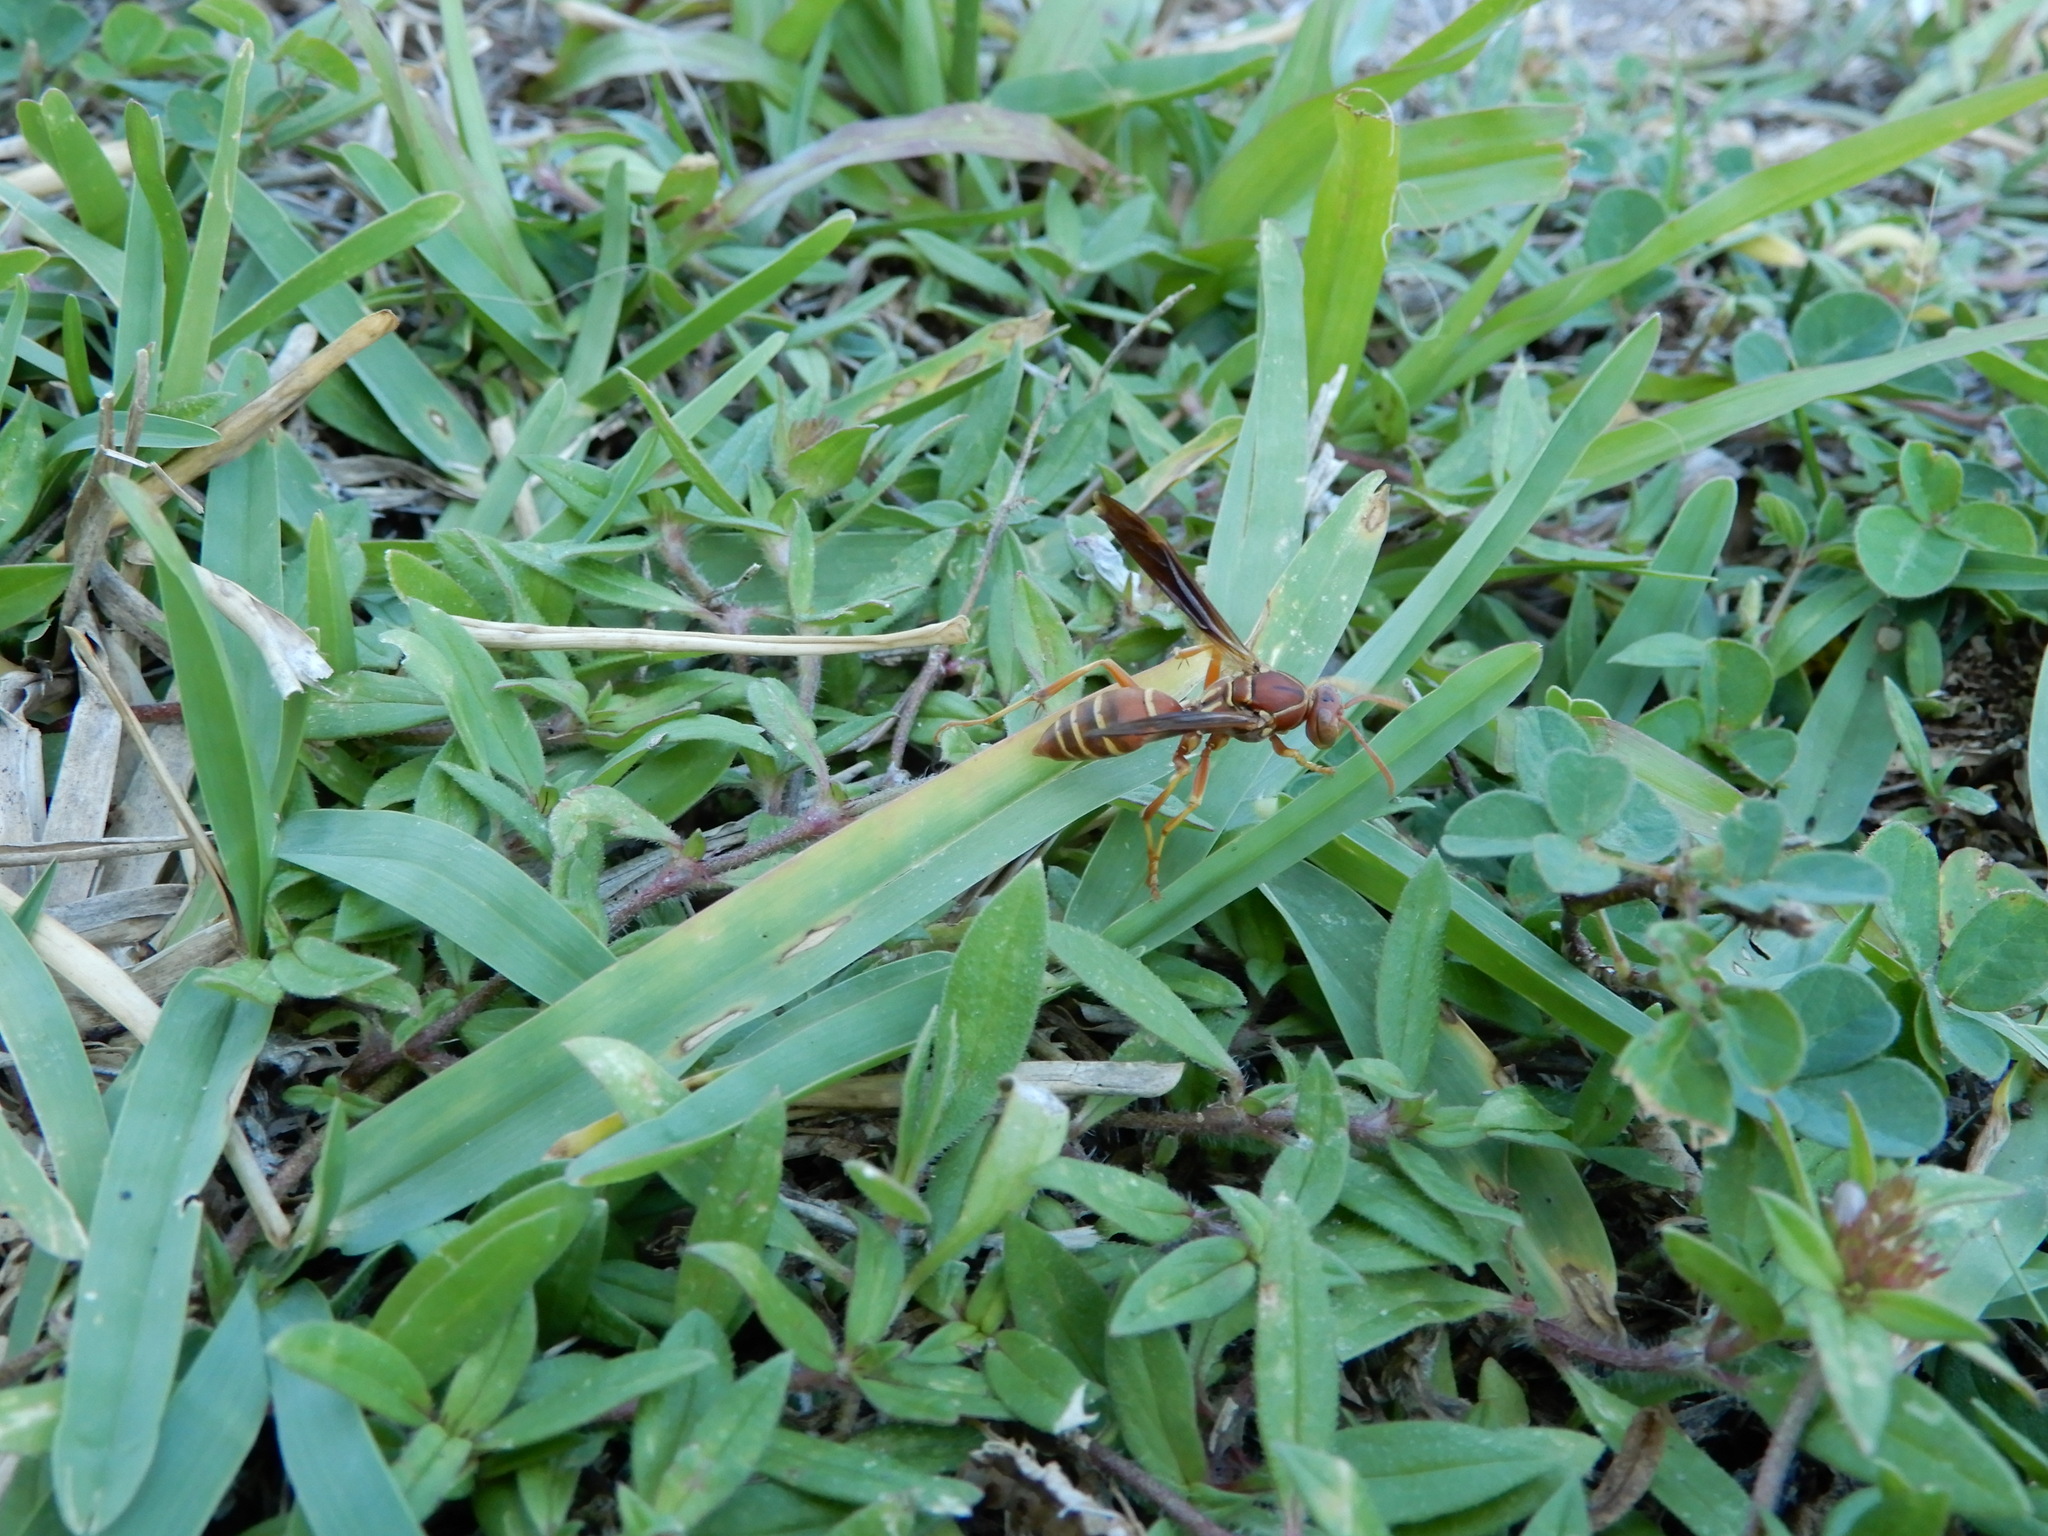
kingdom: Animalia
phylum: Arthropoda
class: Insecta
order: Hymenoptera
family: Eumenidae
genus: Polistes
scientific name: Polistes dorsalis
